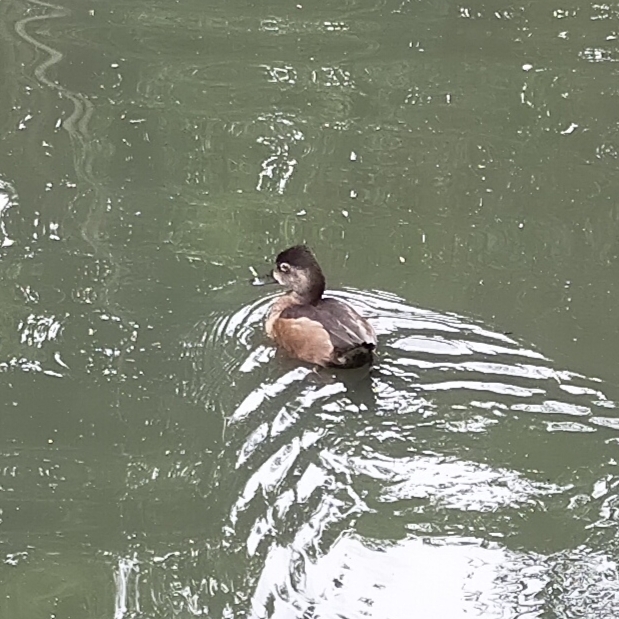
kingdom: Animalia
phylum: Chordata
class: Aves
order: Anseriformes
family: Anatidae
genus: Aythya
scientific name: Aythya fuligula
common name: Tufted duck
